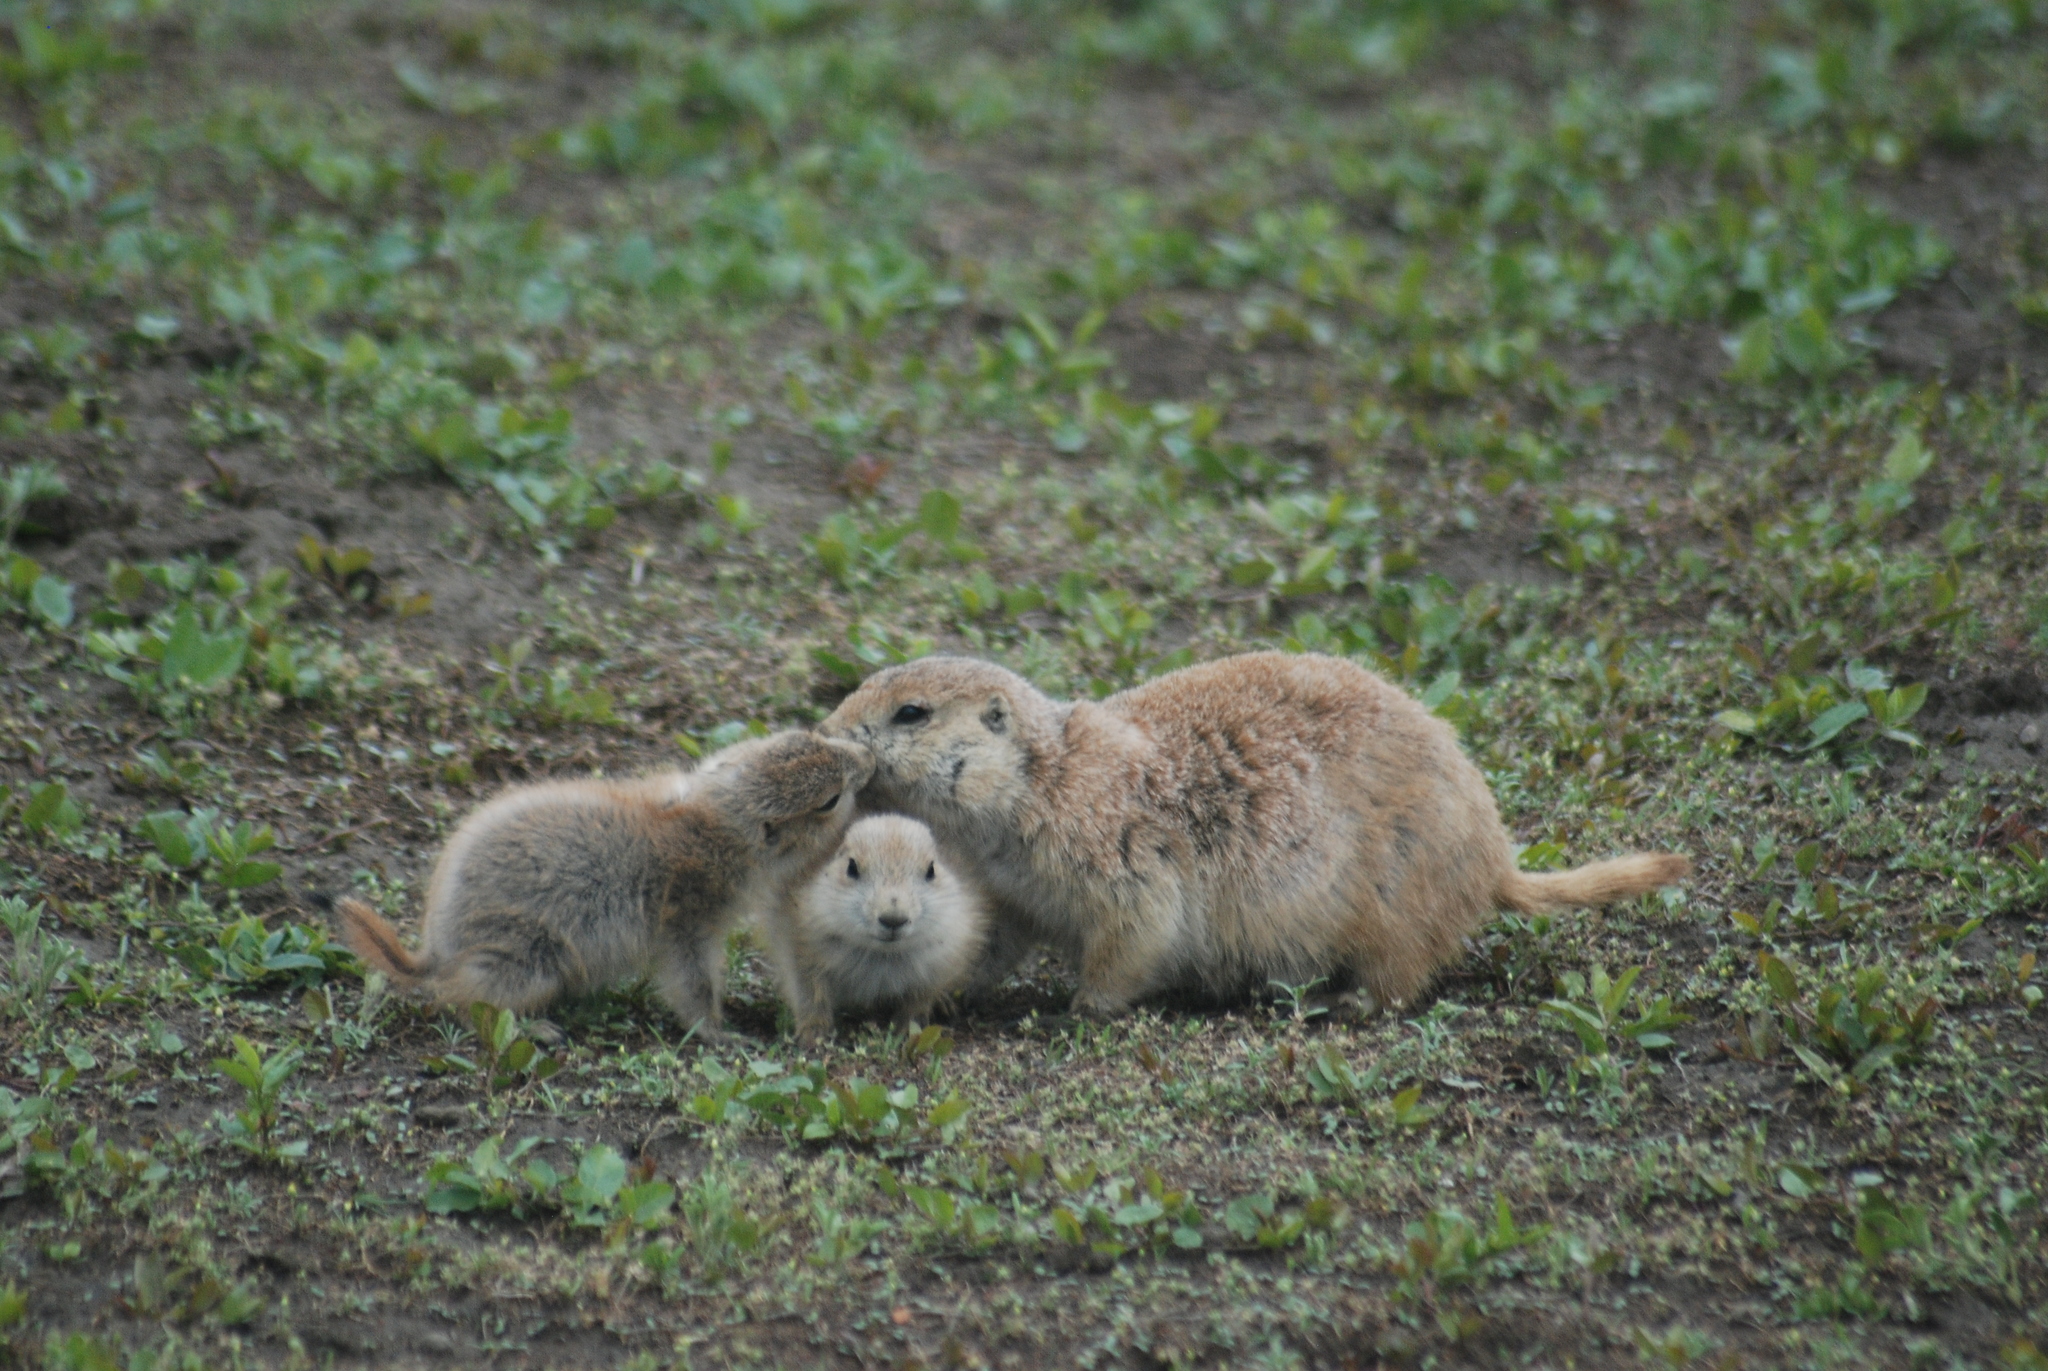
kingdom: Animalia
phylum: Chordata
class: Mammalia
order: Rodentia
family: Sciuridae
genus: Cynomys
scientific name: Cynomys ludovicianus
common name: Black-tailed prairie dog
